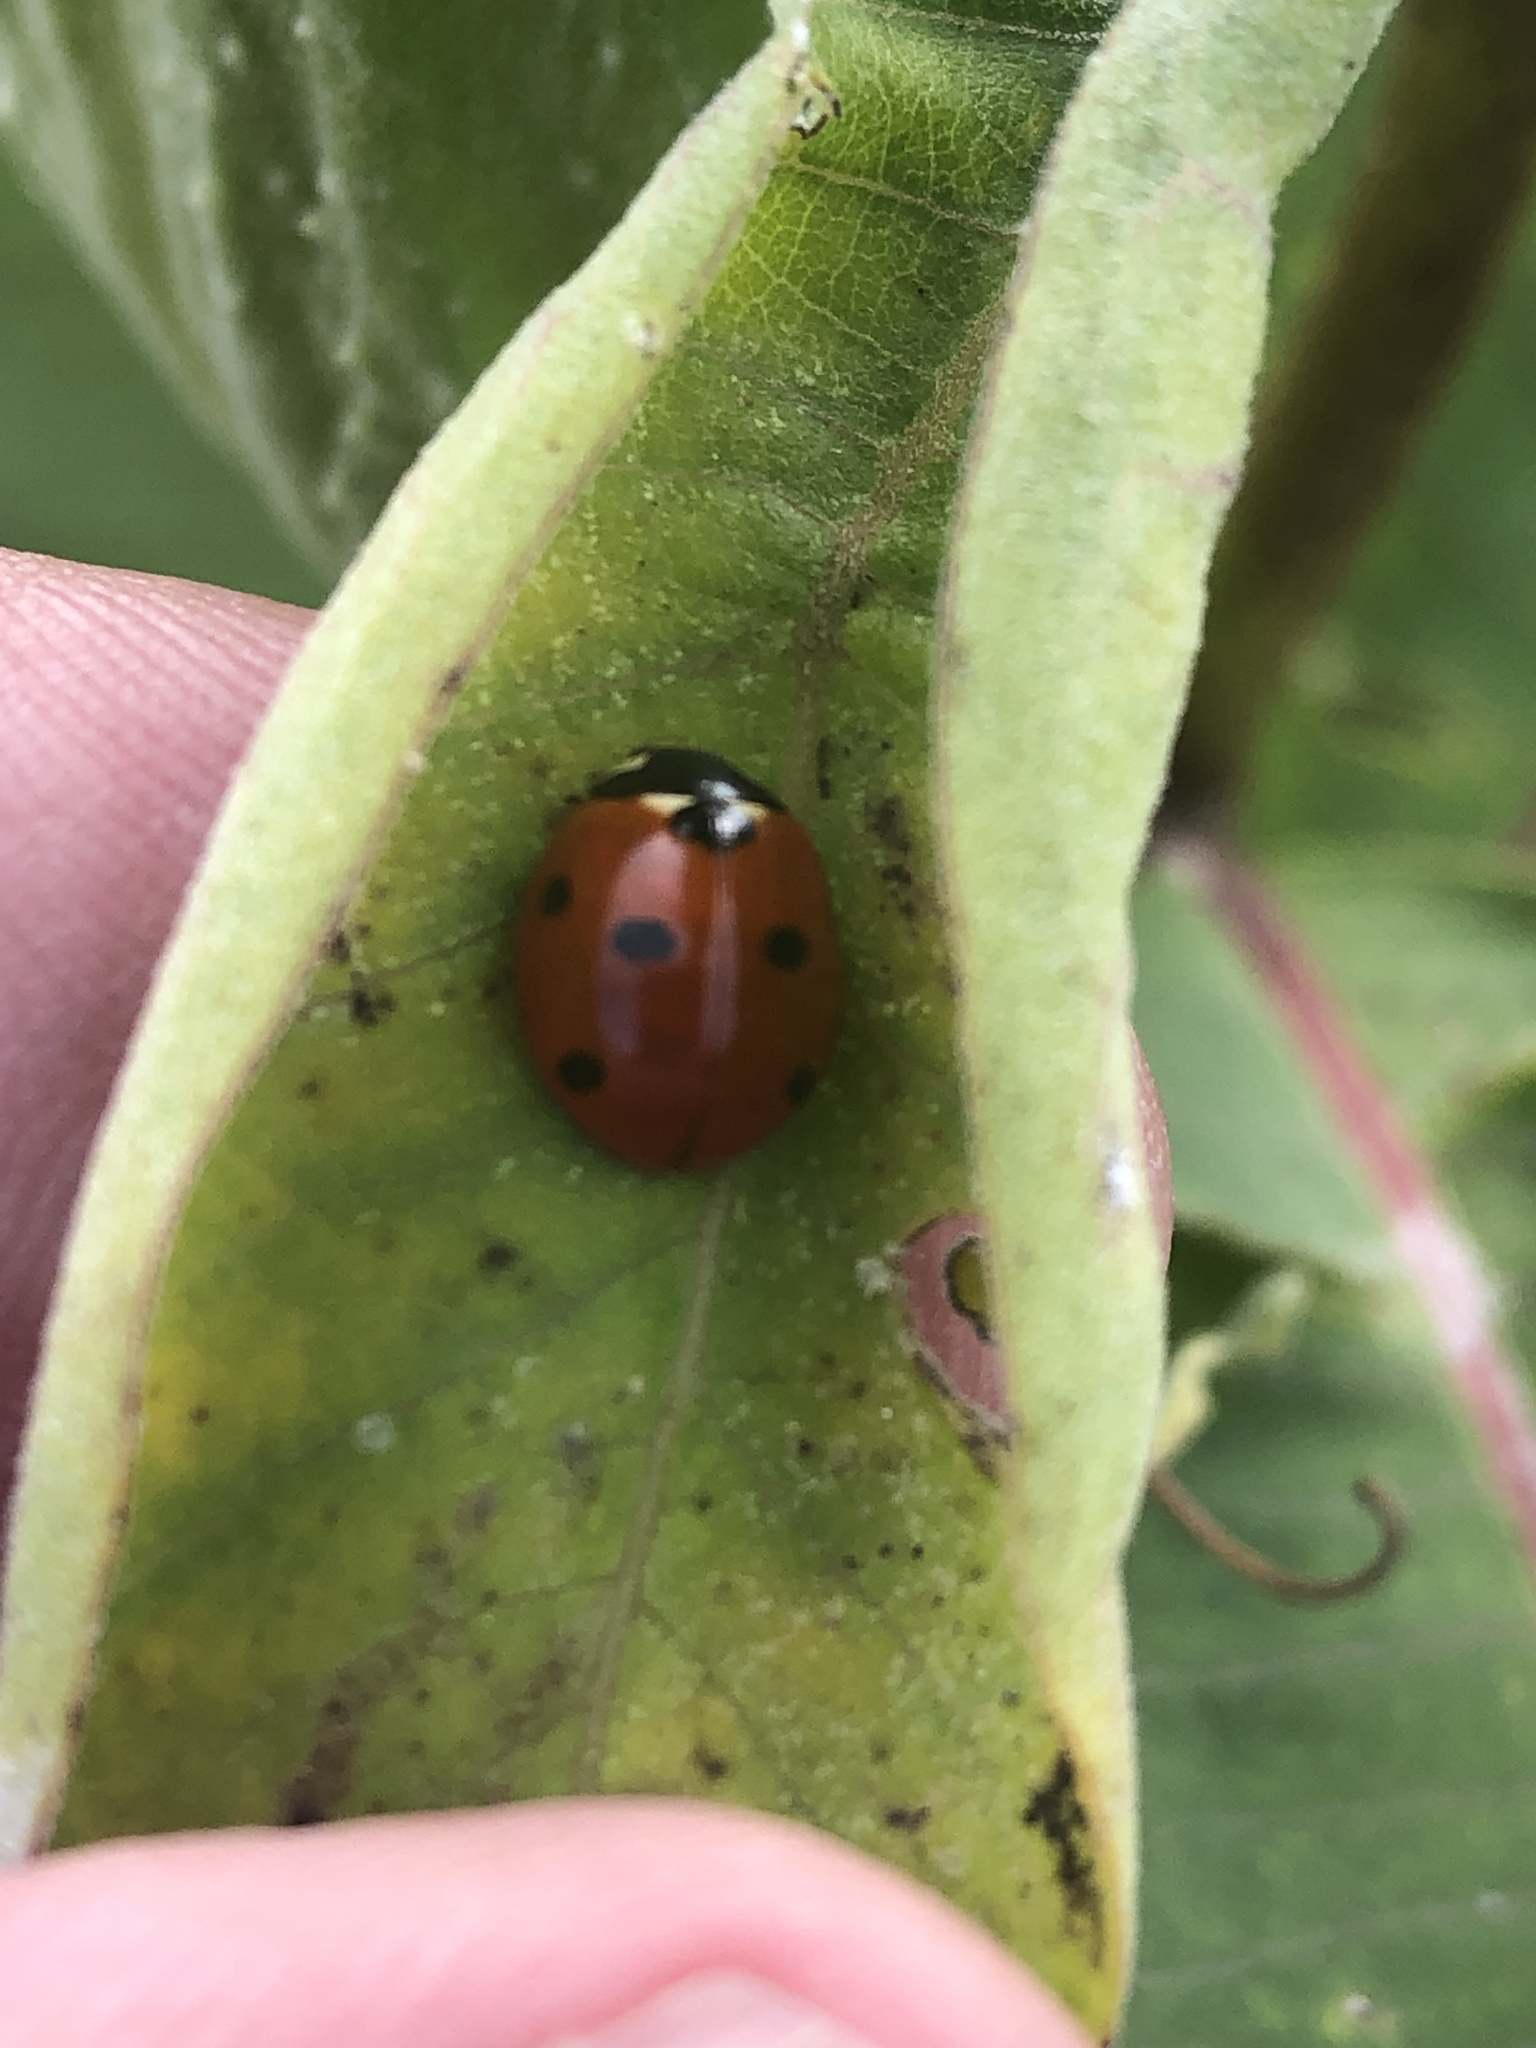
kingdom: Animalia
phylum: Arthropoda
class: Insecta
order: Coleoptera
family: Coccinellidae
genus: Coccinella
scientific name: Coccinella septempunctata
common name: Sevenspotted lady beetle
